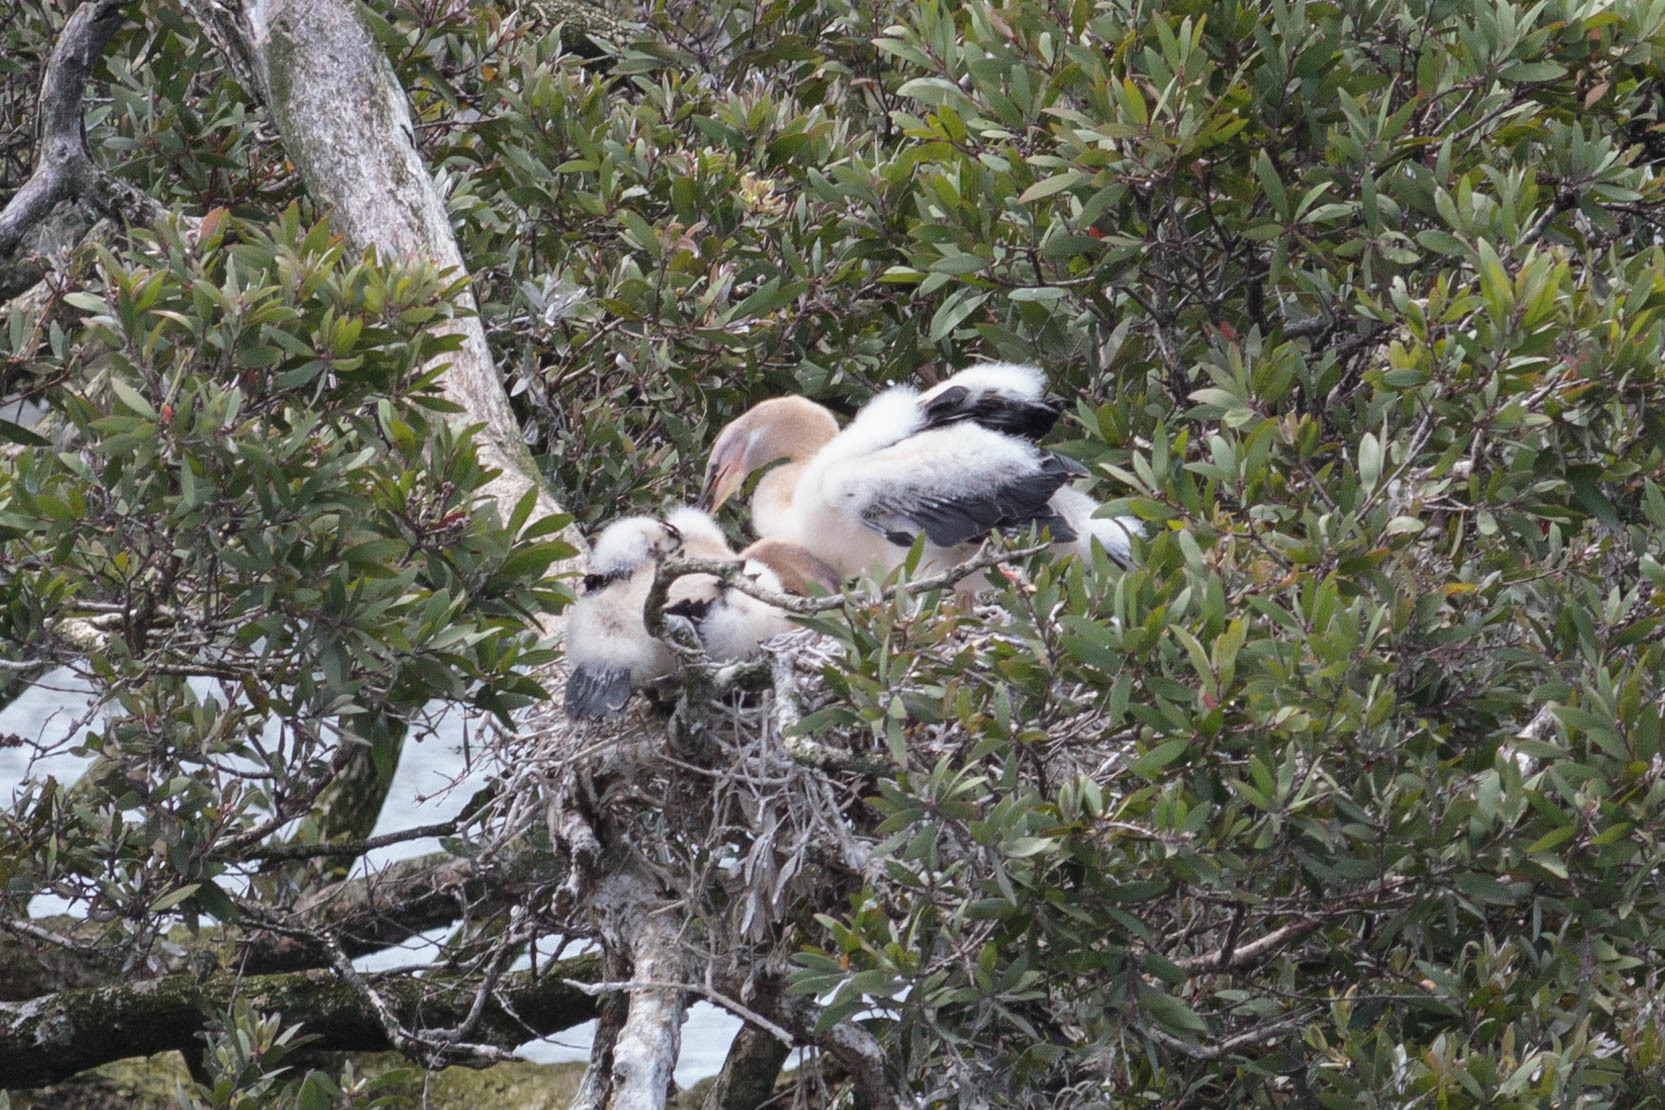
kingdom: Animalia
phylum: Chordata
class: Aves
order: Suliformes
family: Anhingidae
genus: Anhinga
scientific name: Anhinga novaehollandiae
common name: Australasian darter
